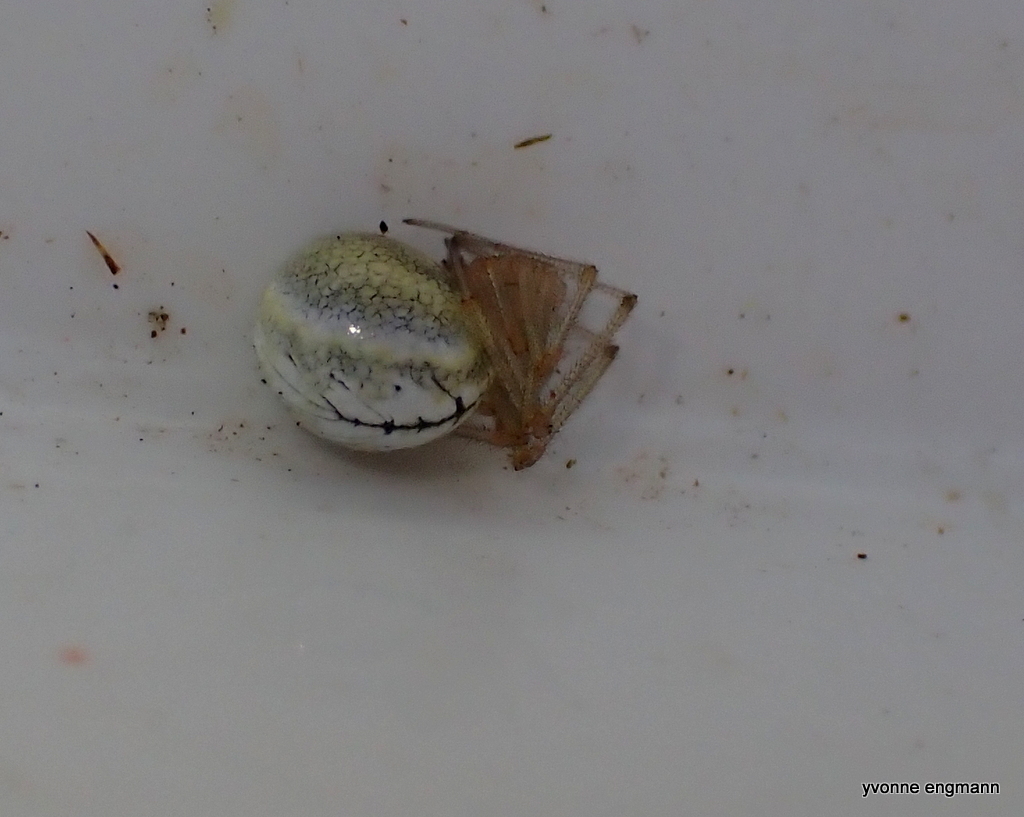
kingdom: Animalia
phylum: Arthropoda
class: Arachnida
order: Araneae
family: Theridiidae
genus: Enoplognatha
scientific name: Enoplognatha ovata
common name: Common candy-striped spider
